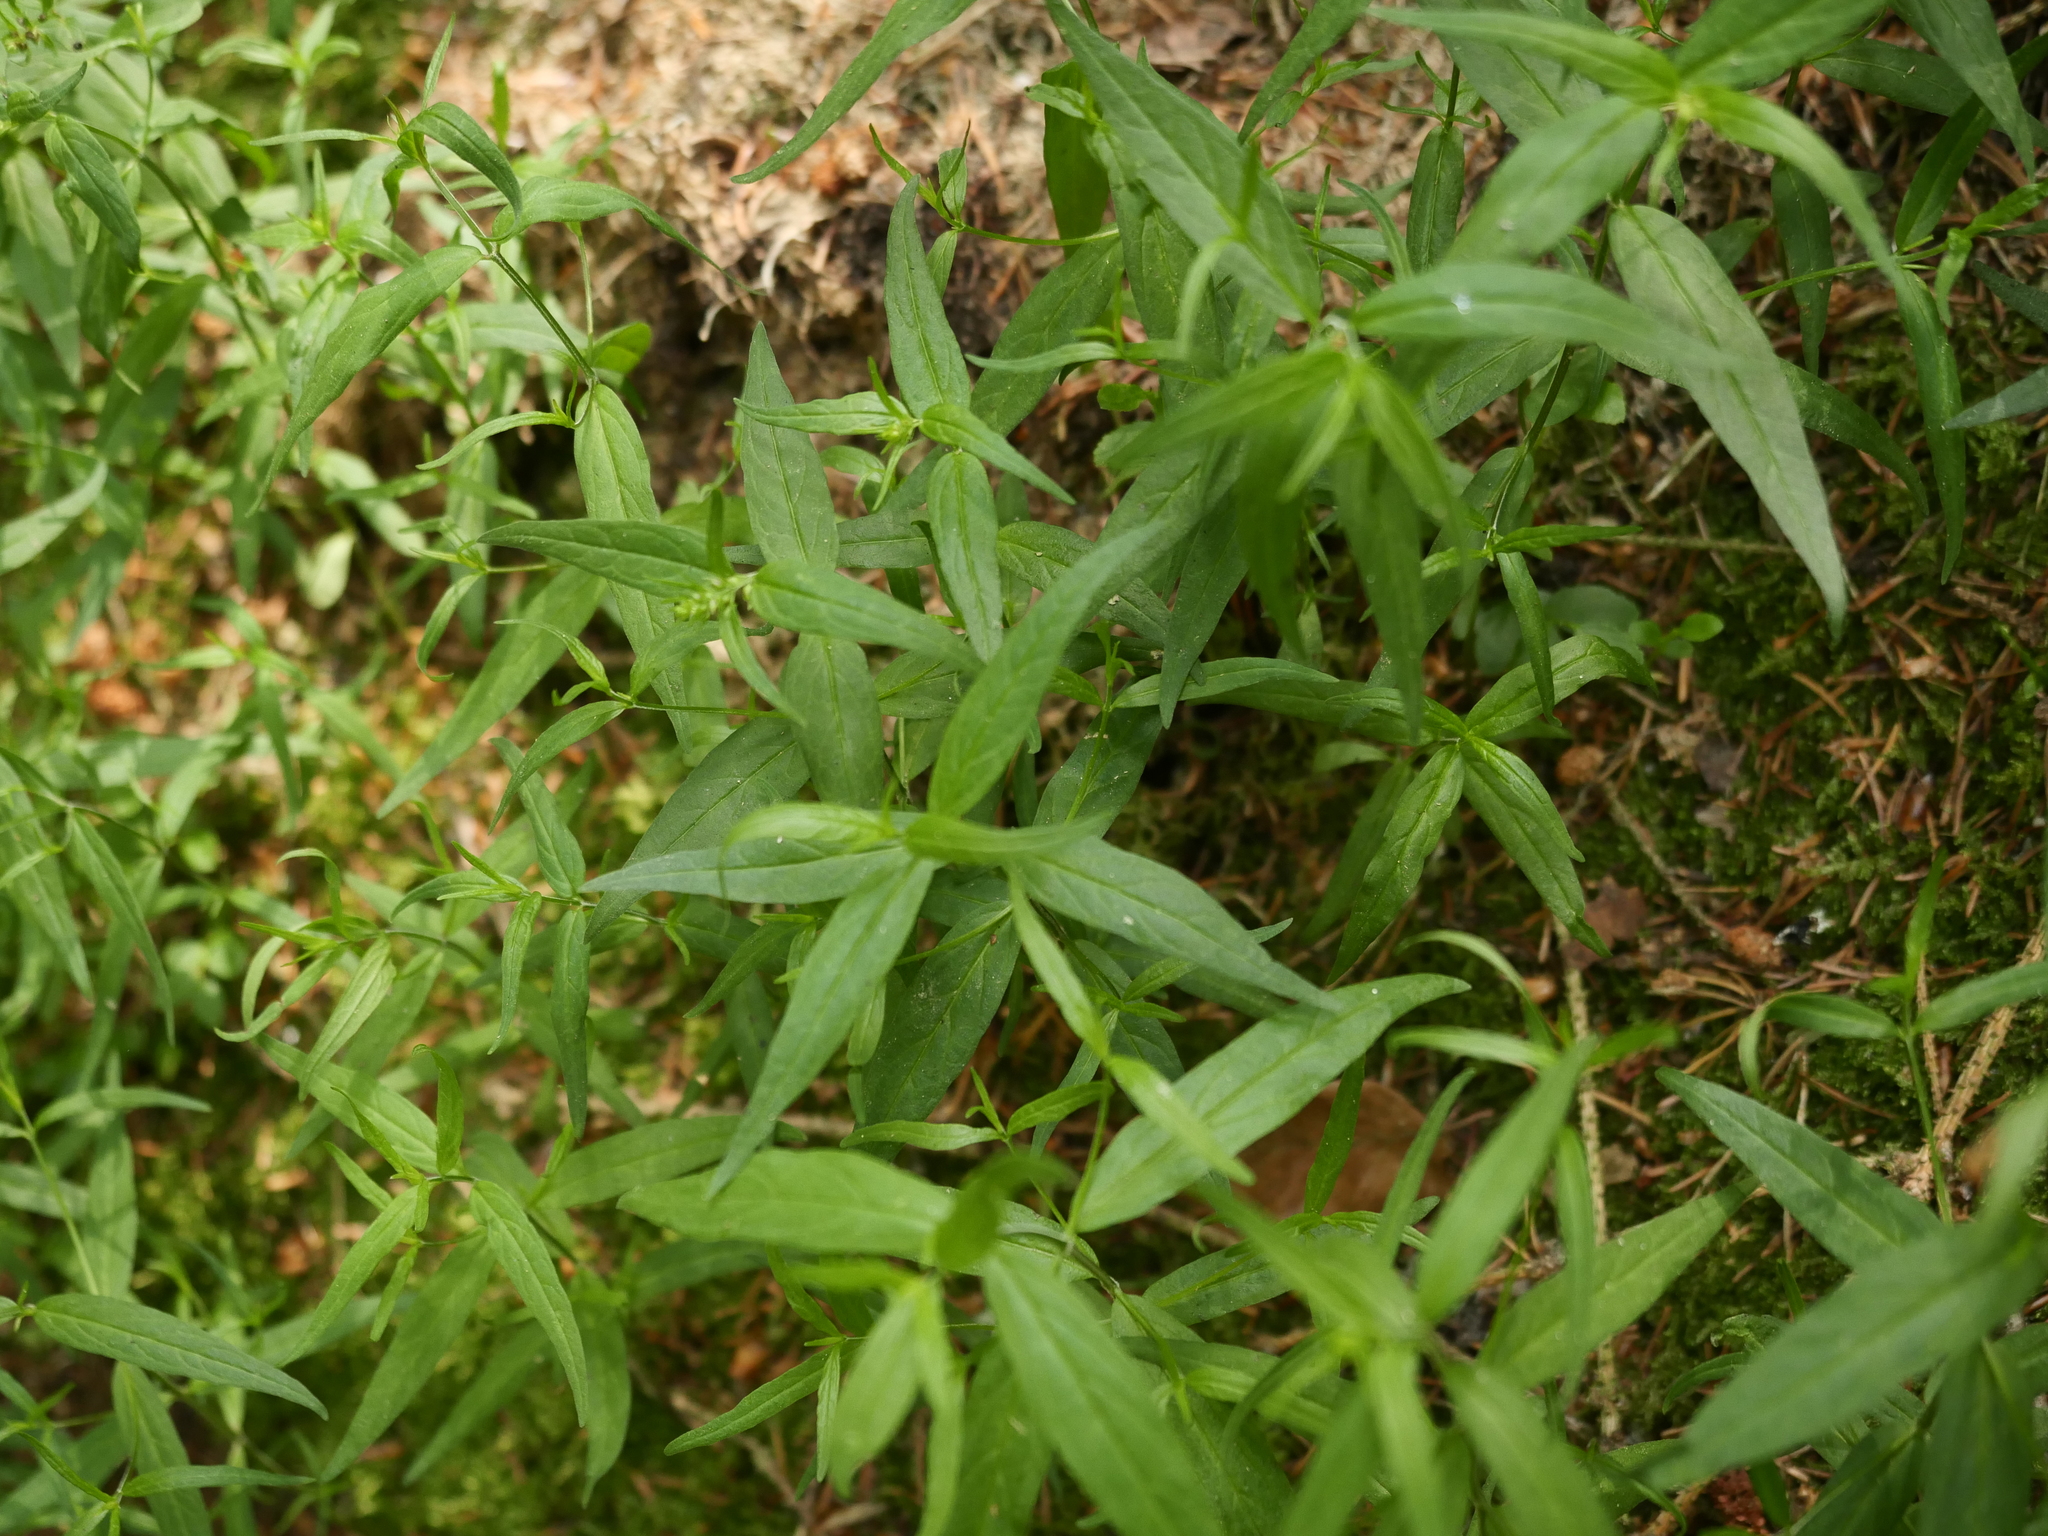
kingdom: Plantae
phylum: Tracheophyta
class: Magnoliopsida
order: Lamiales
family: Orobanchaceae
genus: Melampyrum
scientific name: Melampyrum pratense
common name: Common cow-wheat
